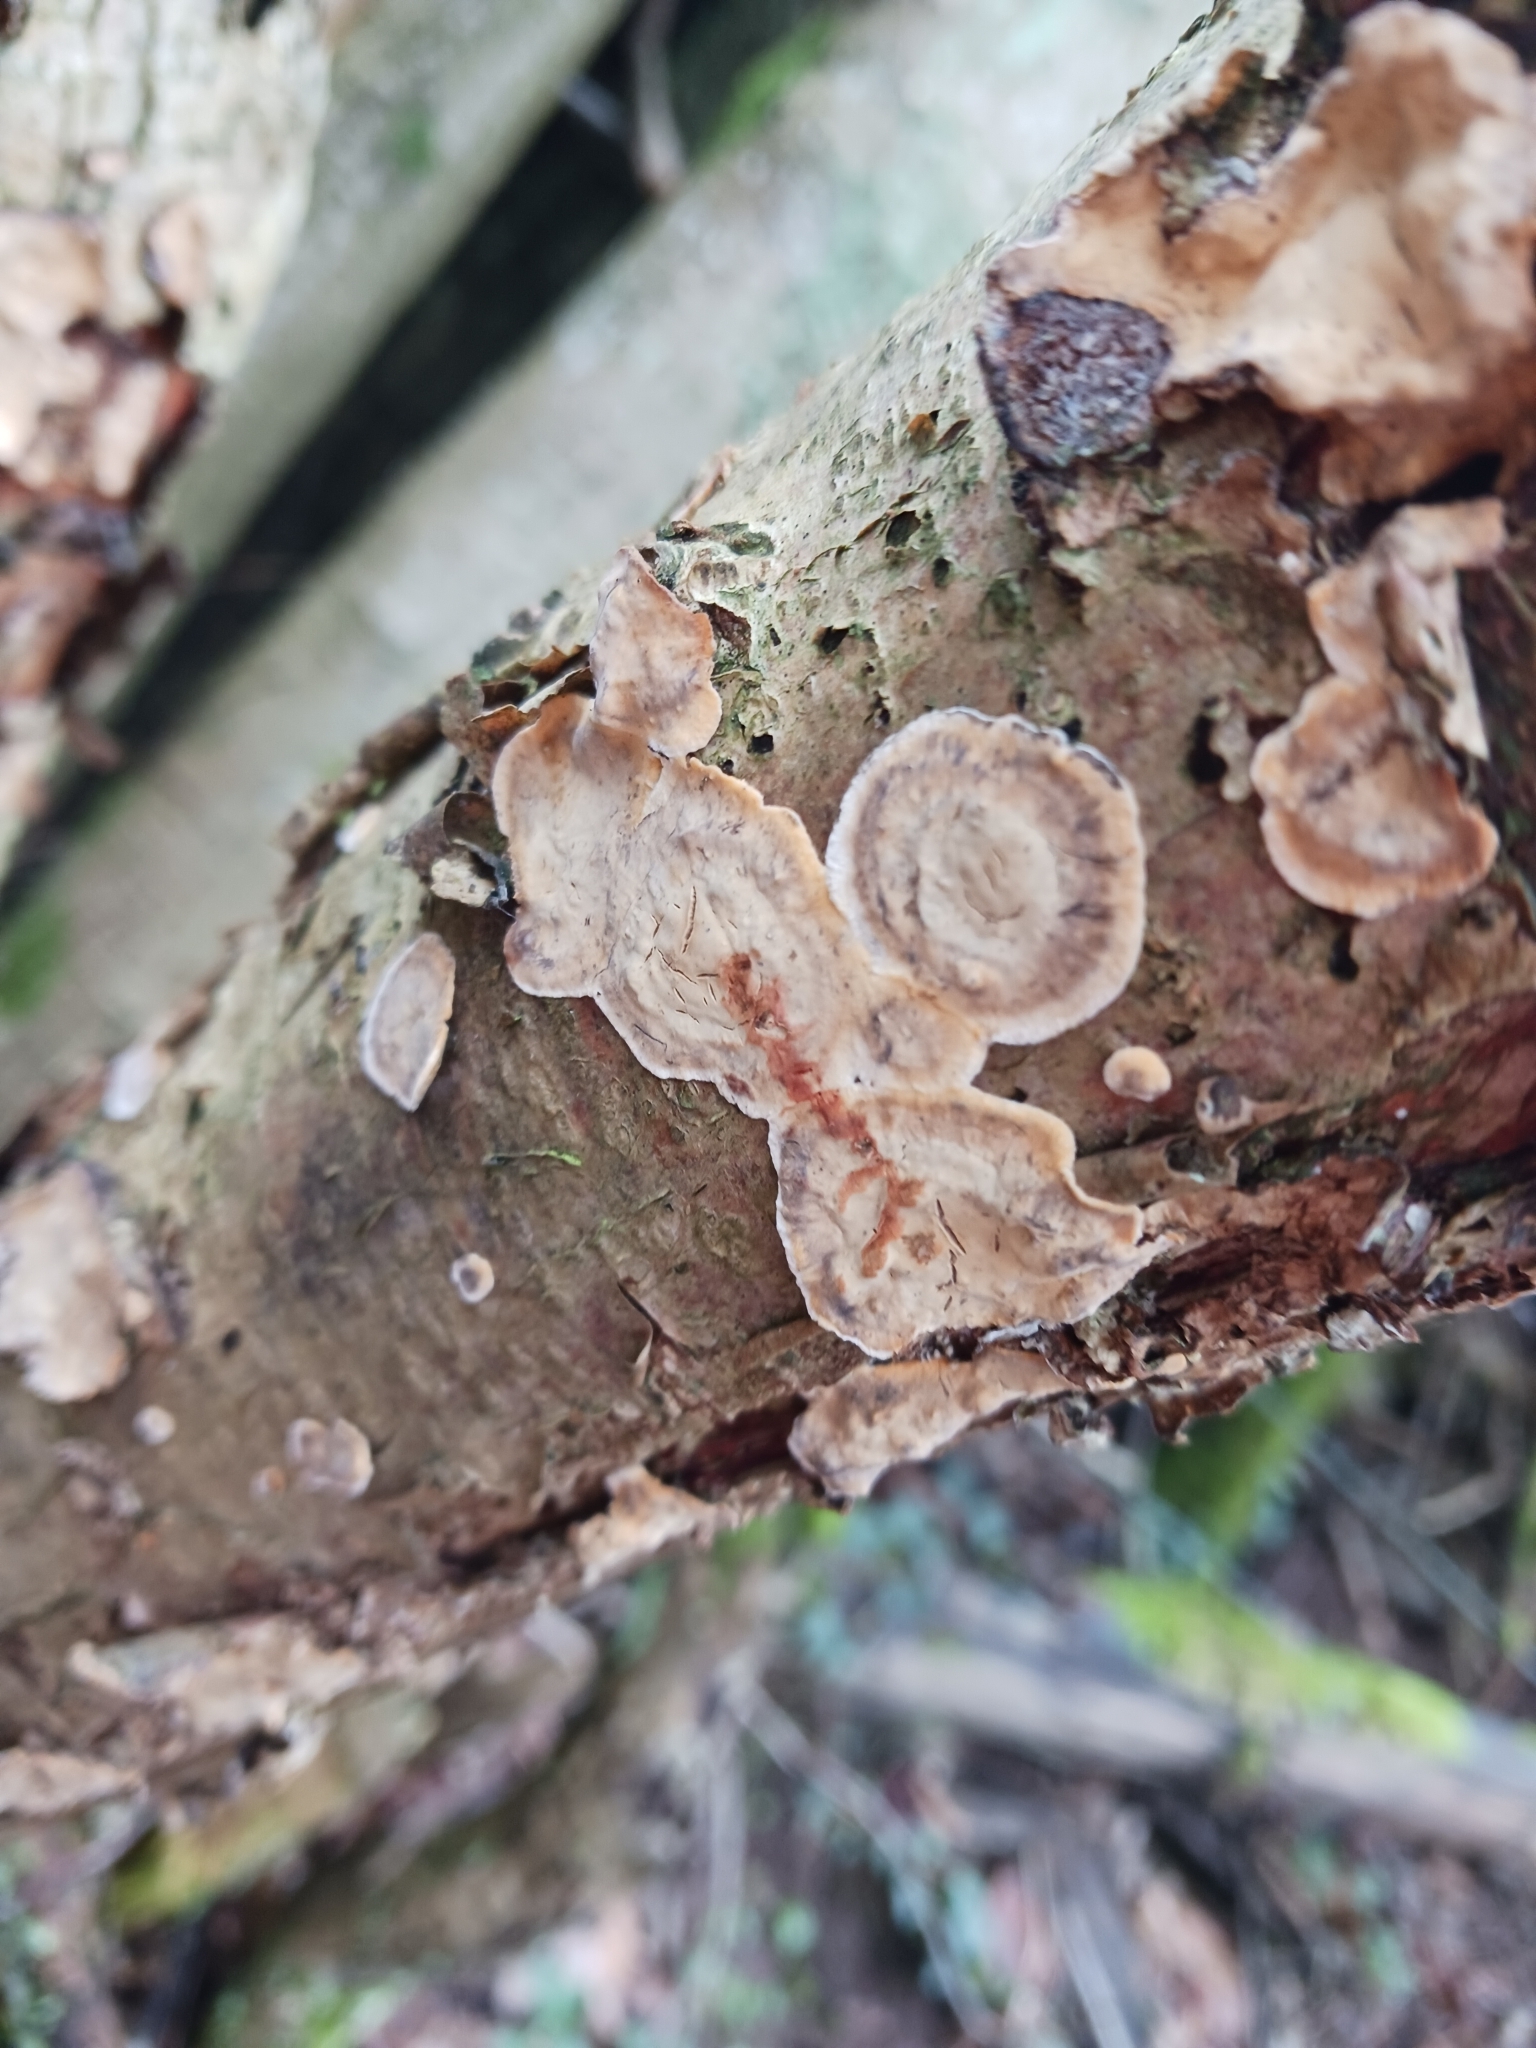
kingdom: Fungi
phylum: Basidiomycota
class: Agaricomycetes
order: Russulales
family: Stereaceae
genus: Stereum
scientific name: Stereum rugosum
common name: Bleeding broadleaf crust
